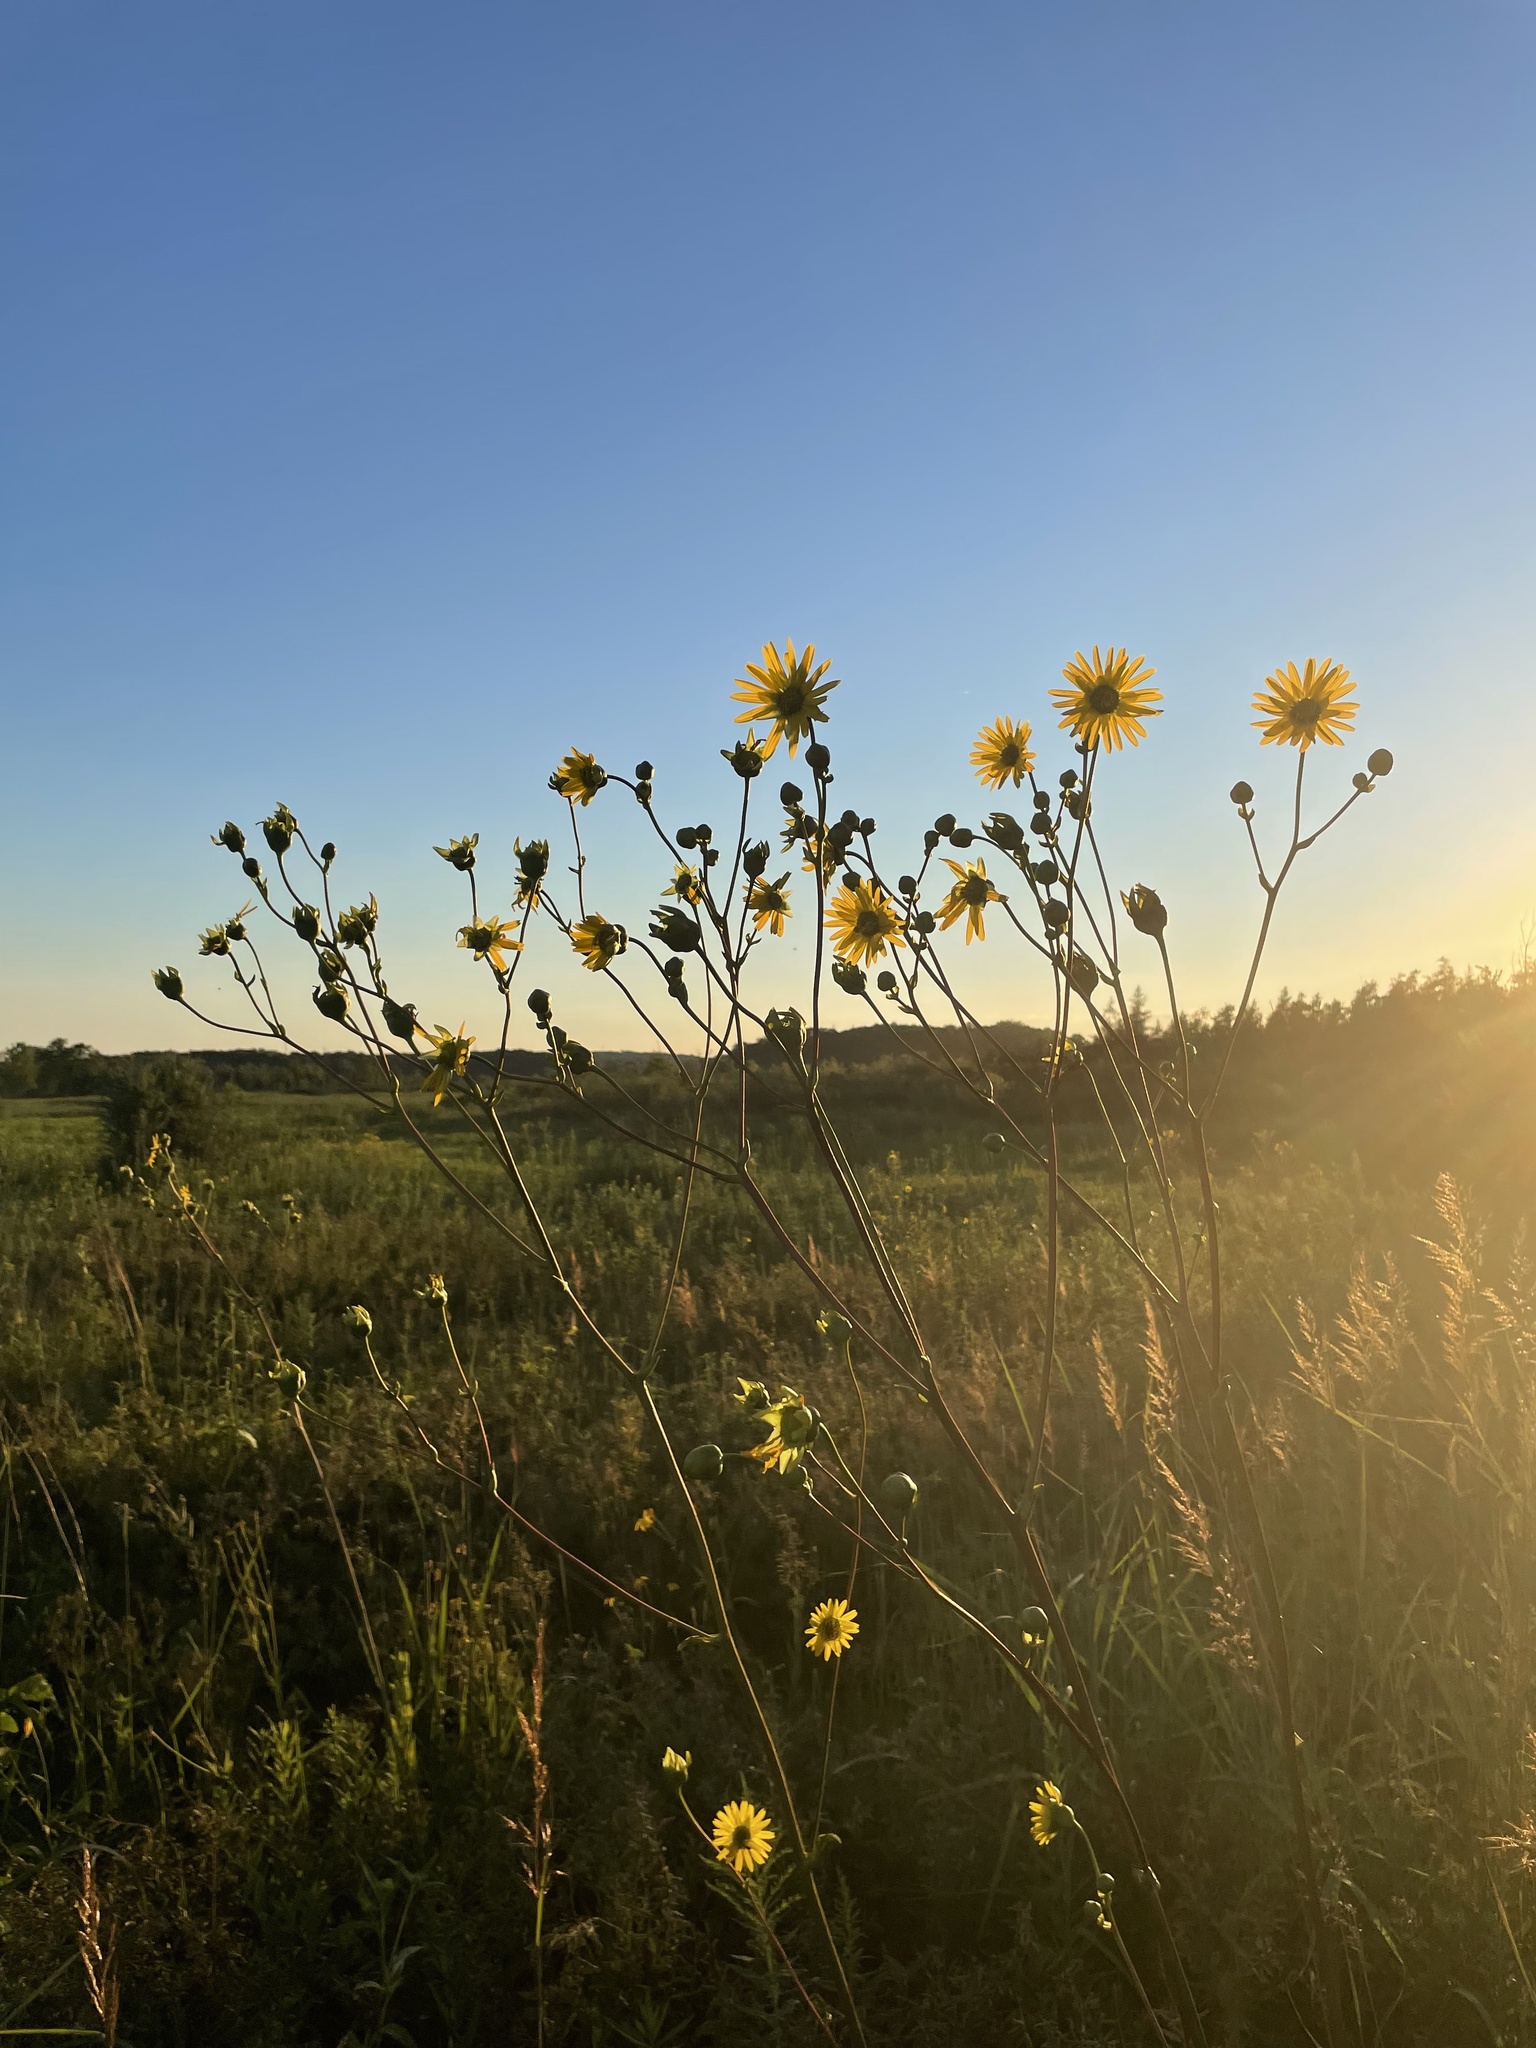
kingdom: Plantae
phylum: Tracheophyta
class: Magnoliopsida
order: Asterales
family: Asteraceae
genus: Silphium
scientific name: Silphium terebinthinaceum
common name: Basal-leaf rosinweed
